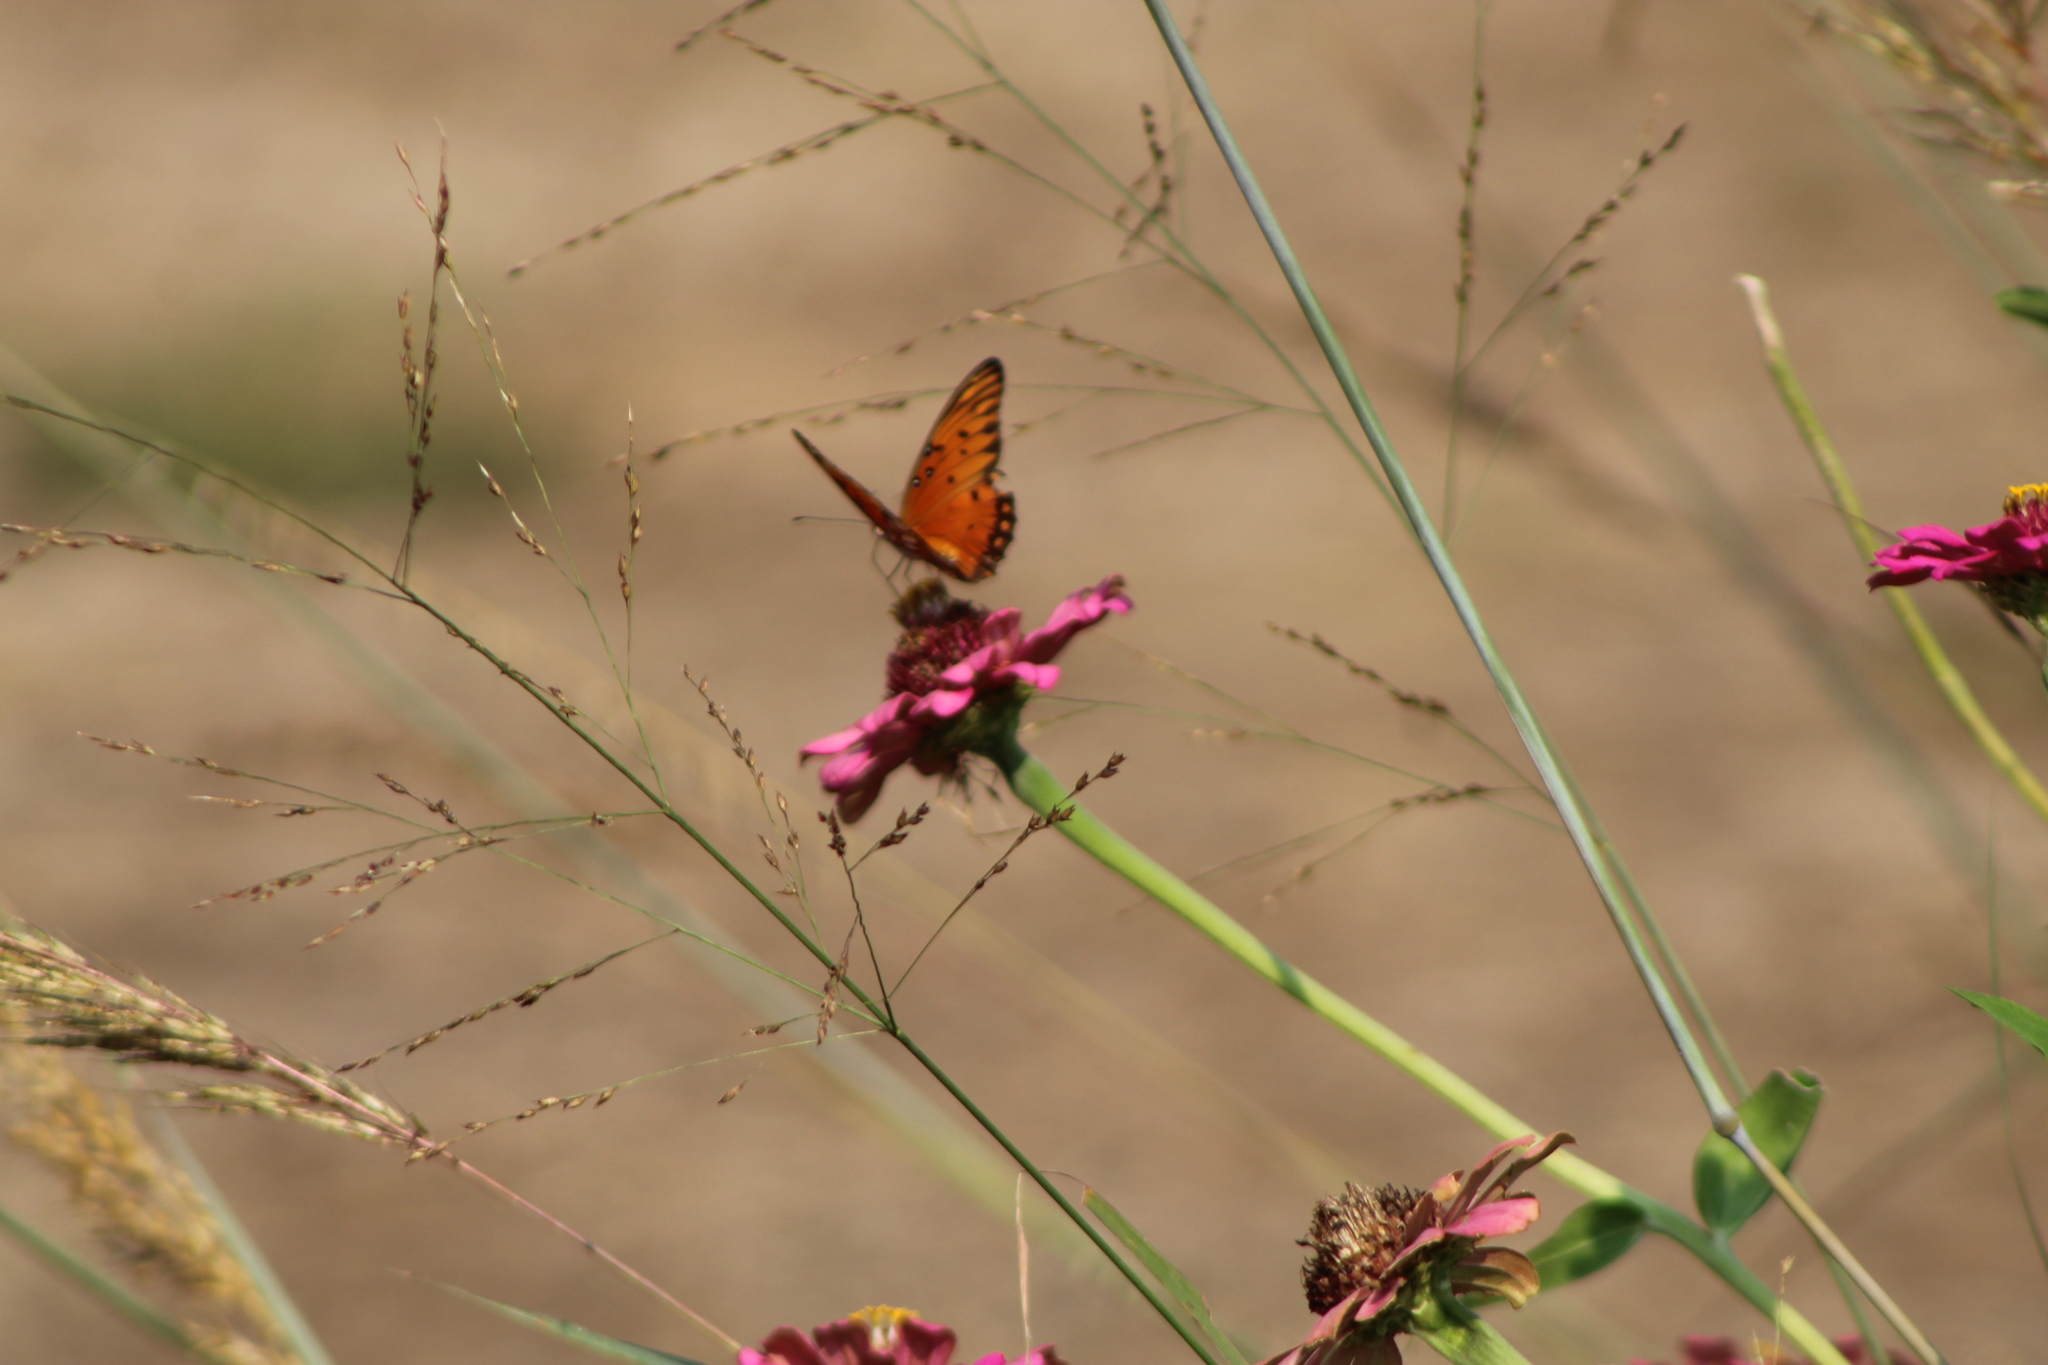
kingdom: Animalia
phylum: Arthropoda
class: Insecta
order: Lepidoptera
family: Nymphalidae
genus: Dione
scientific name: Dione vanillae
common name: Gulf fritillary
